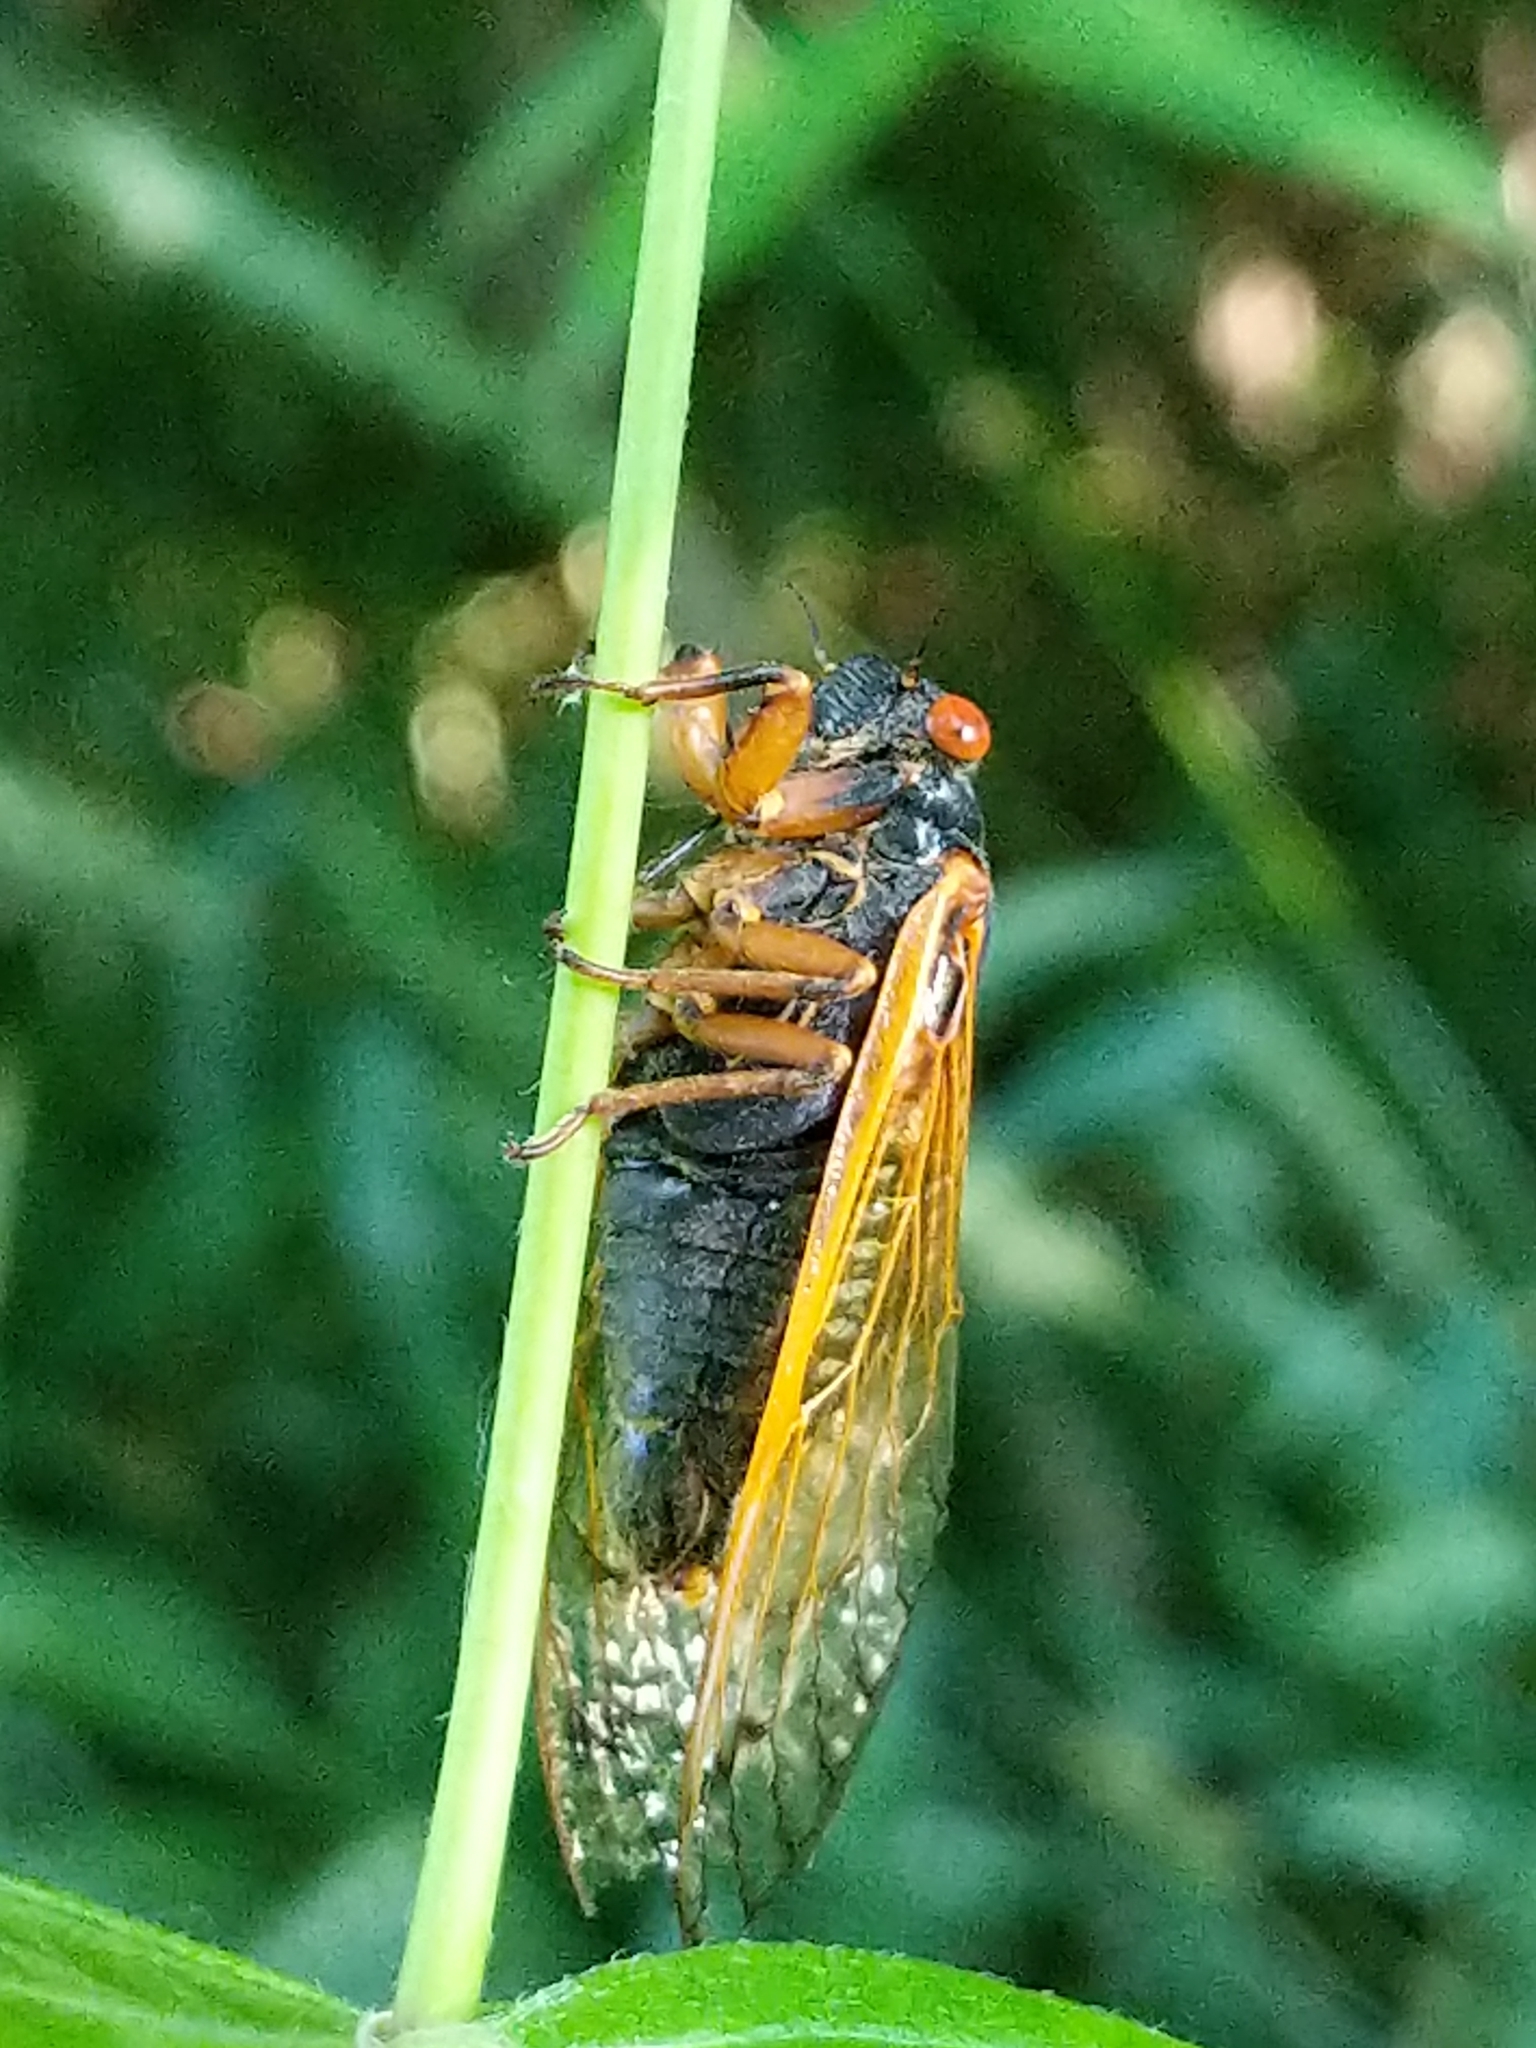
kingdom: Animalia
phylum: Arthropoda
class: Insecta
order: Hemiptera
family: Cicadidae
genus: Magicicada
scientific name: Magicicada cassini
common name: Cassin's 17-year cicada
